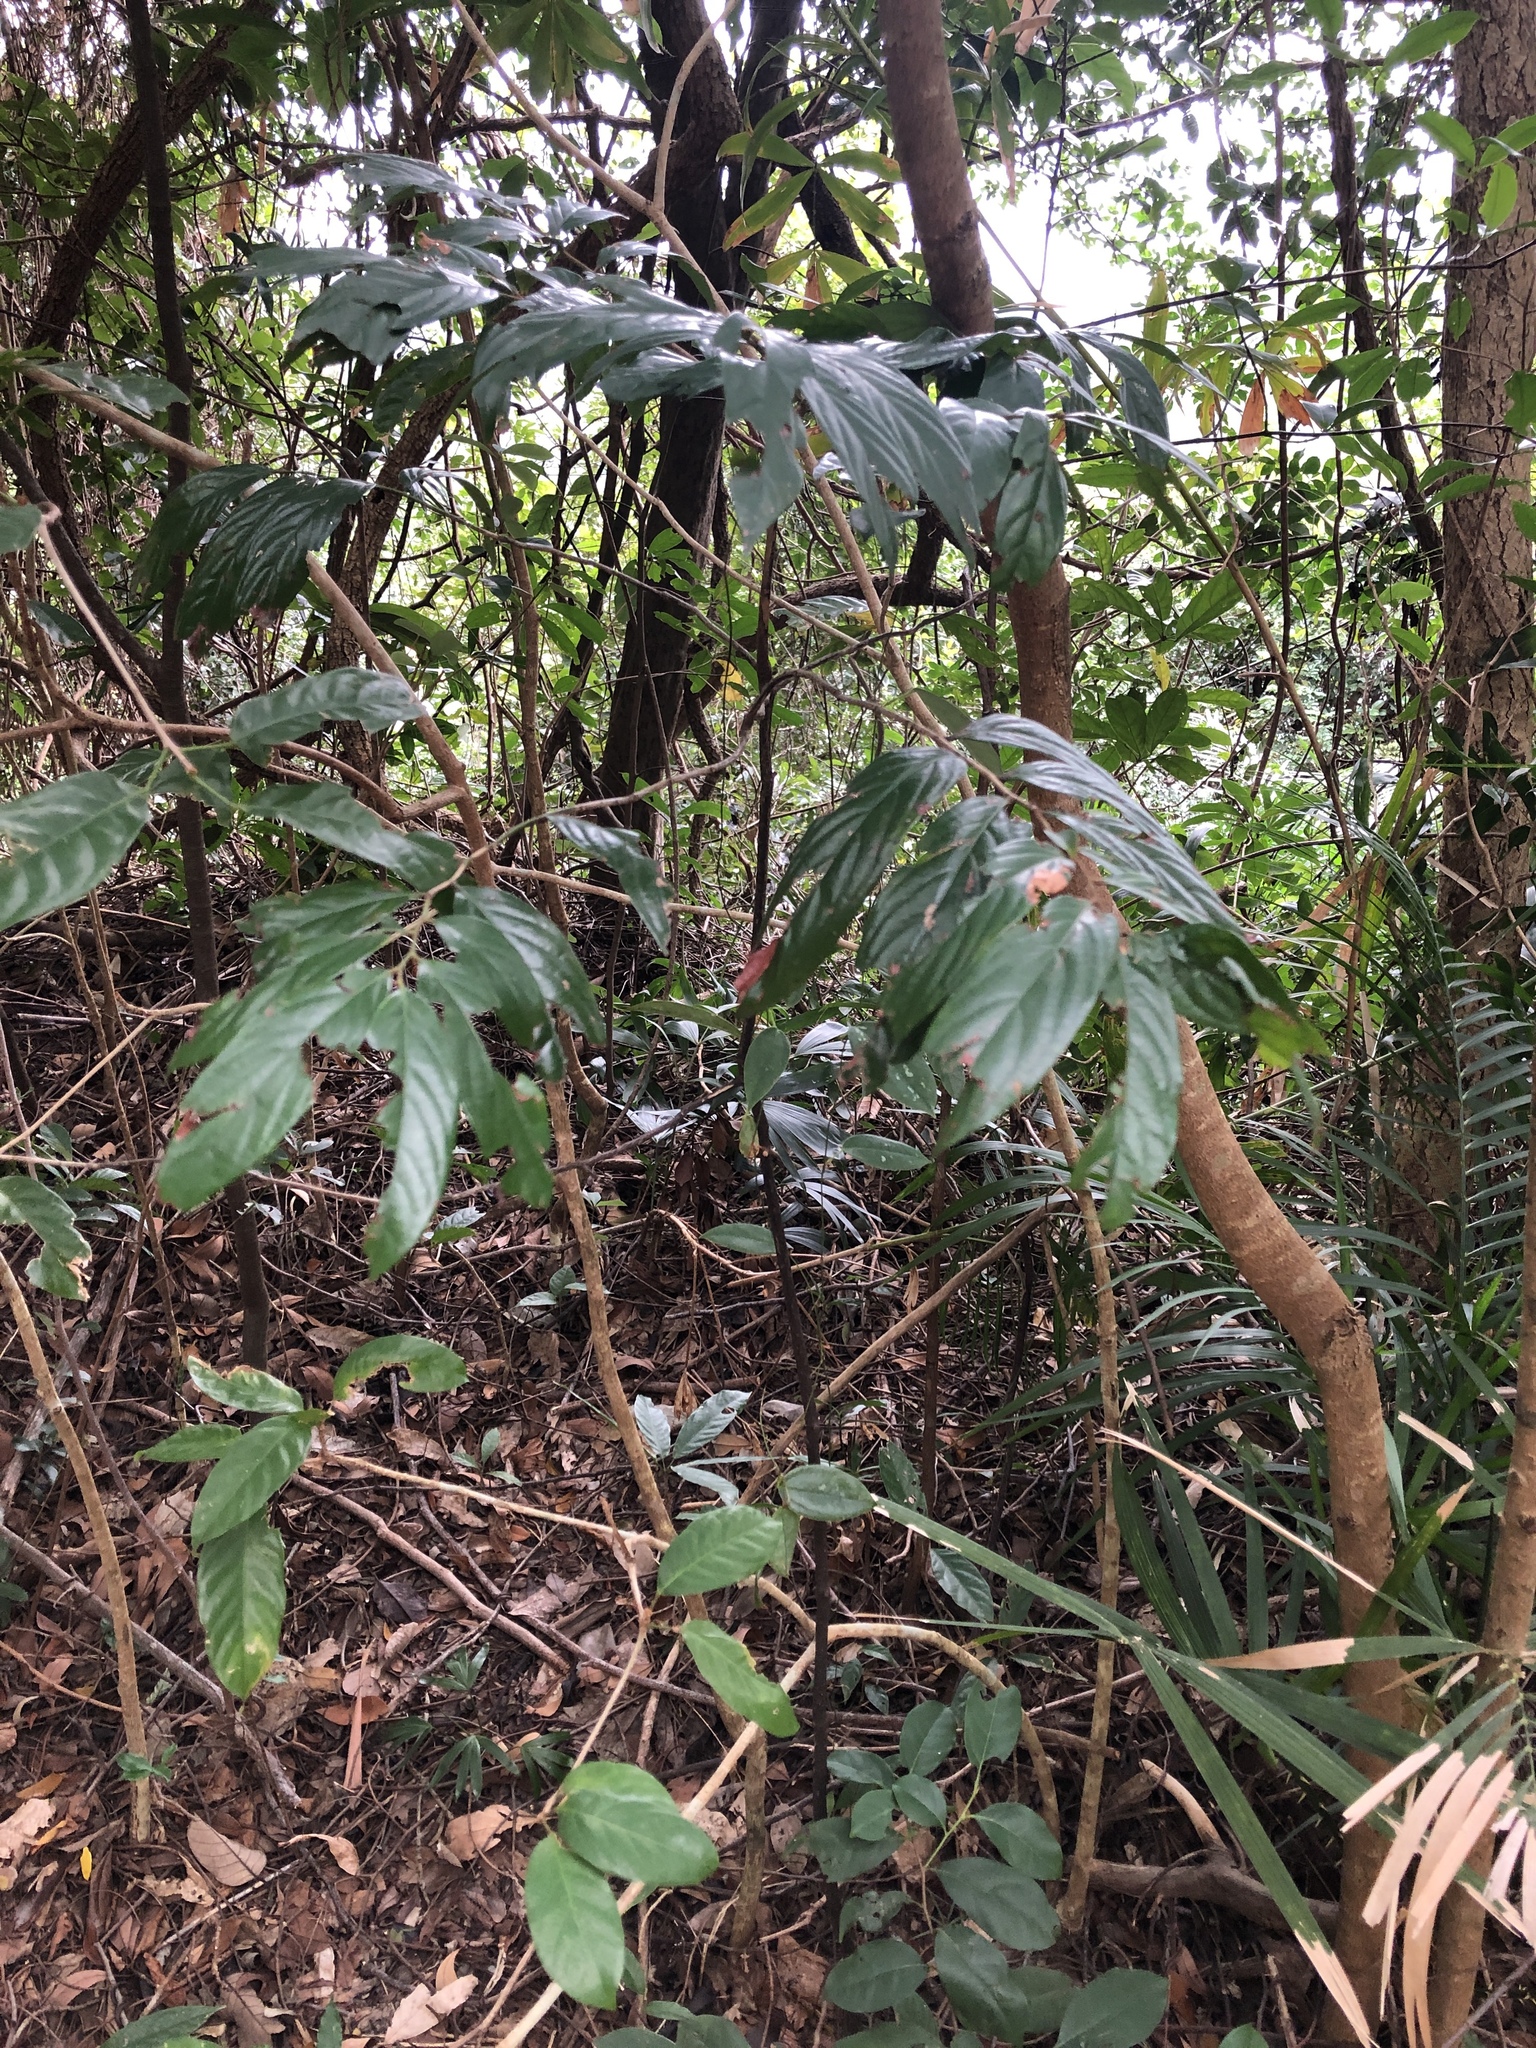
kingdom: Plantae
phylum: Tracheophyta
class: Magnoliopsida
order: Ericales
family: Ebenaceae
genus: Diospyros
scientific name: Diospyros eriantha
